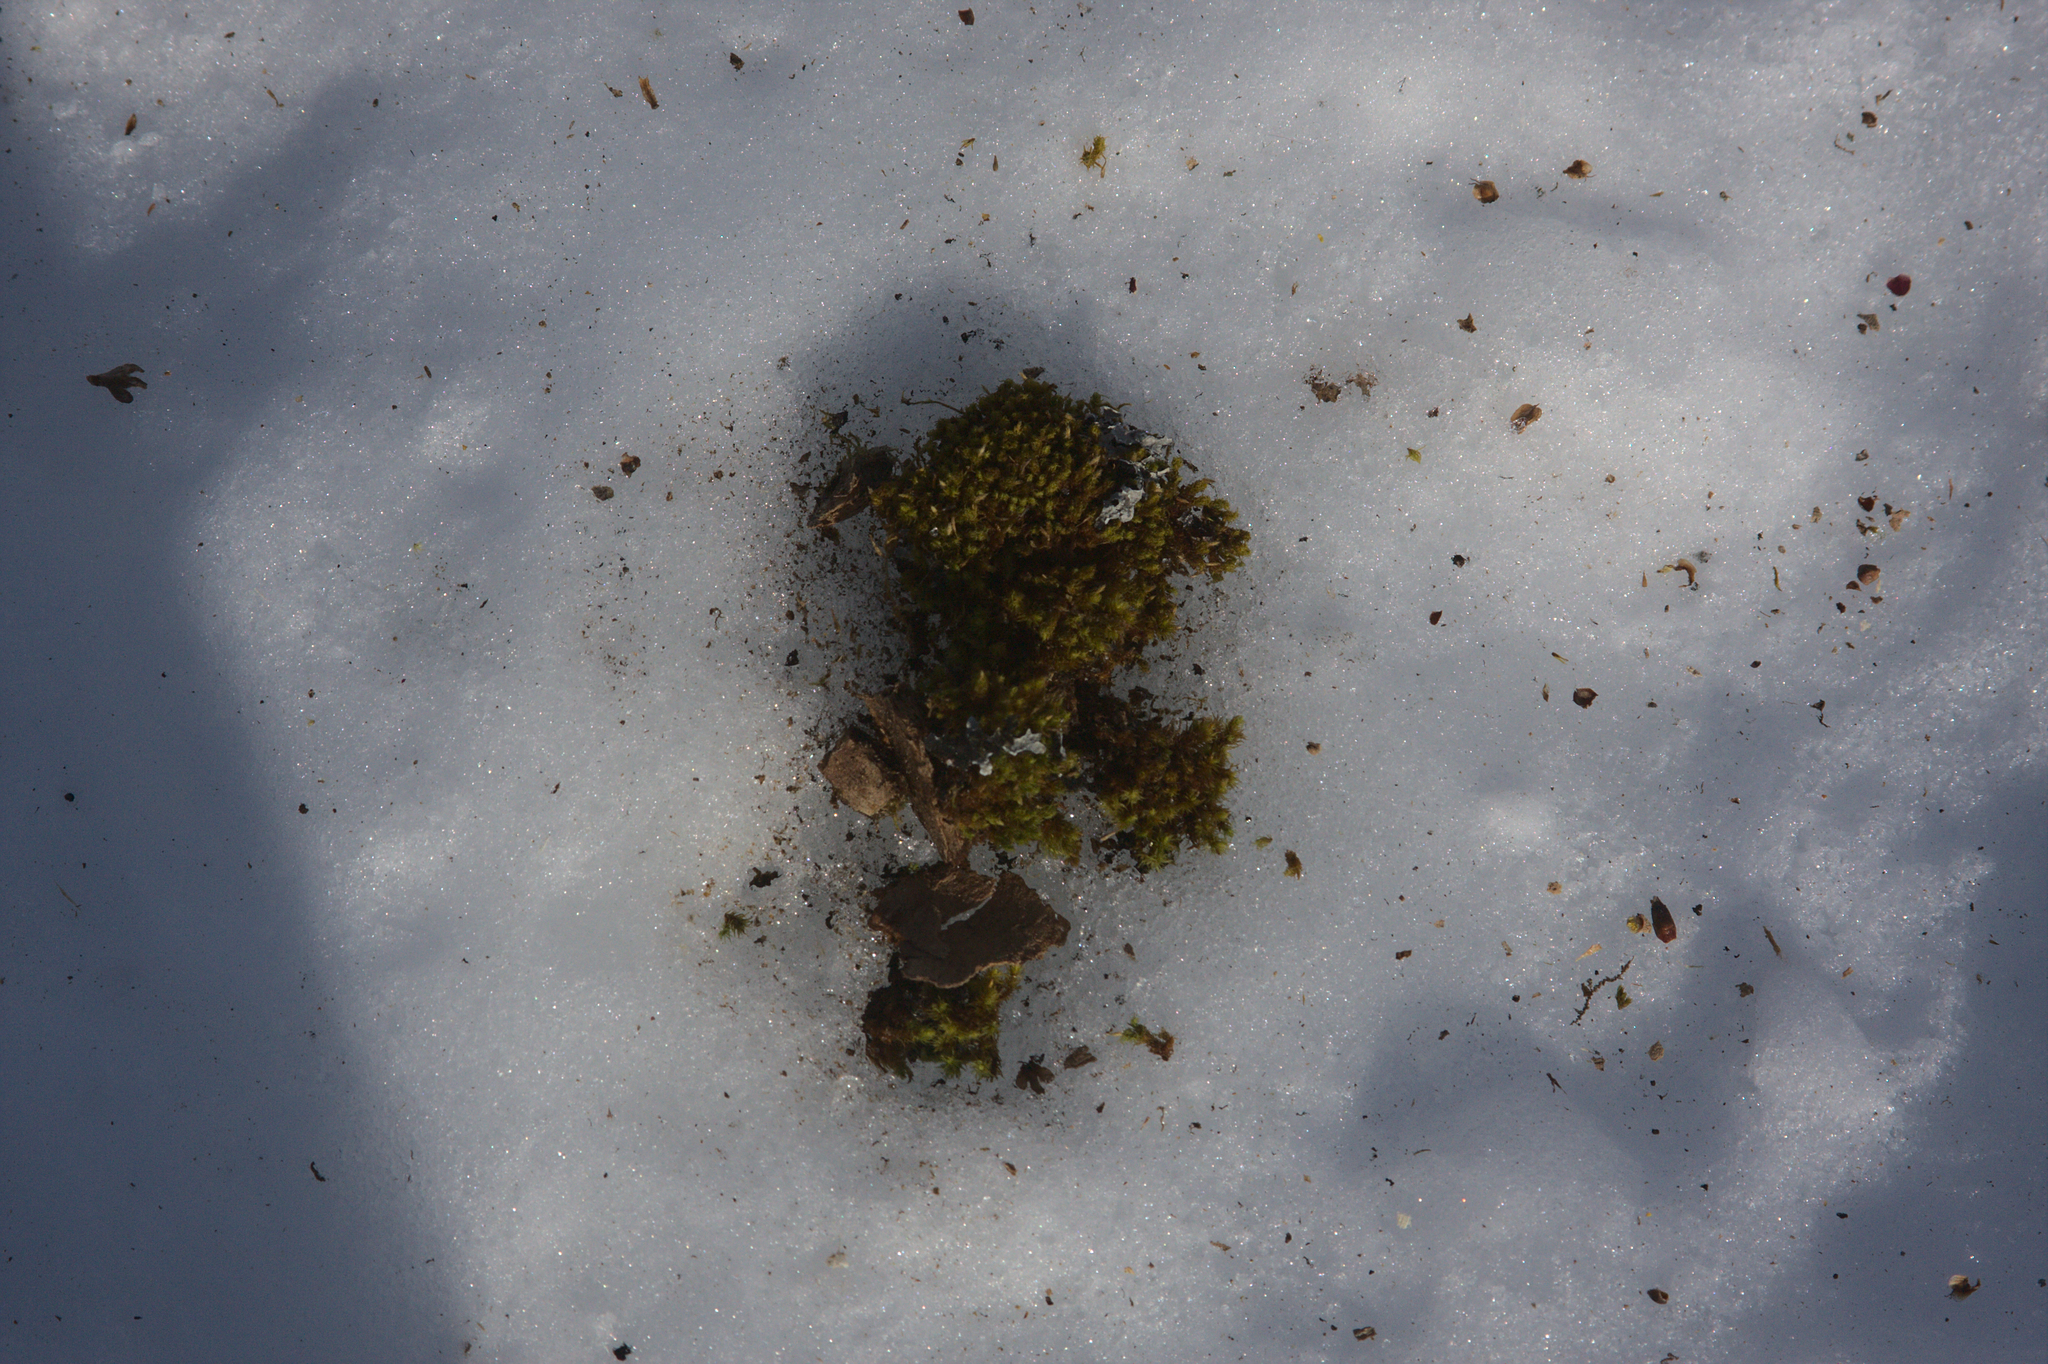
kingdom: Plantae
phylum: Bryophyta
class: Bryopsida
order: Orthotrichales
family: Orthotrichaceae
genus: Ulota
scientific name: Ulota crispa
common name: Crisped pincushion moss
